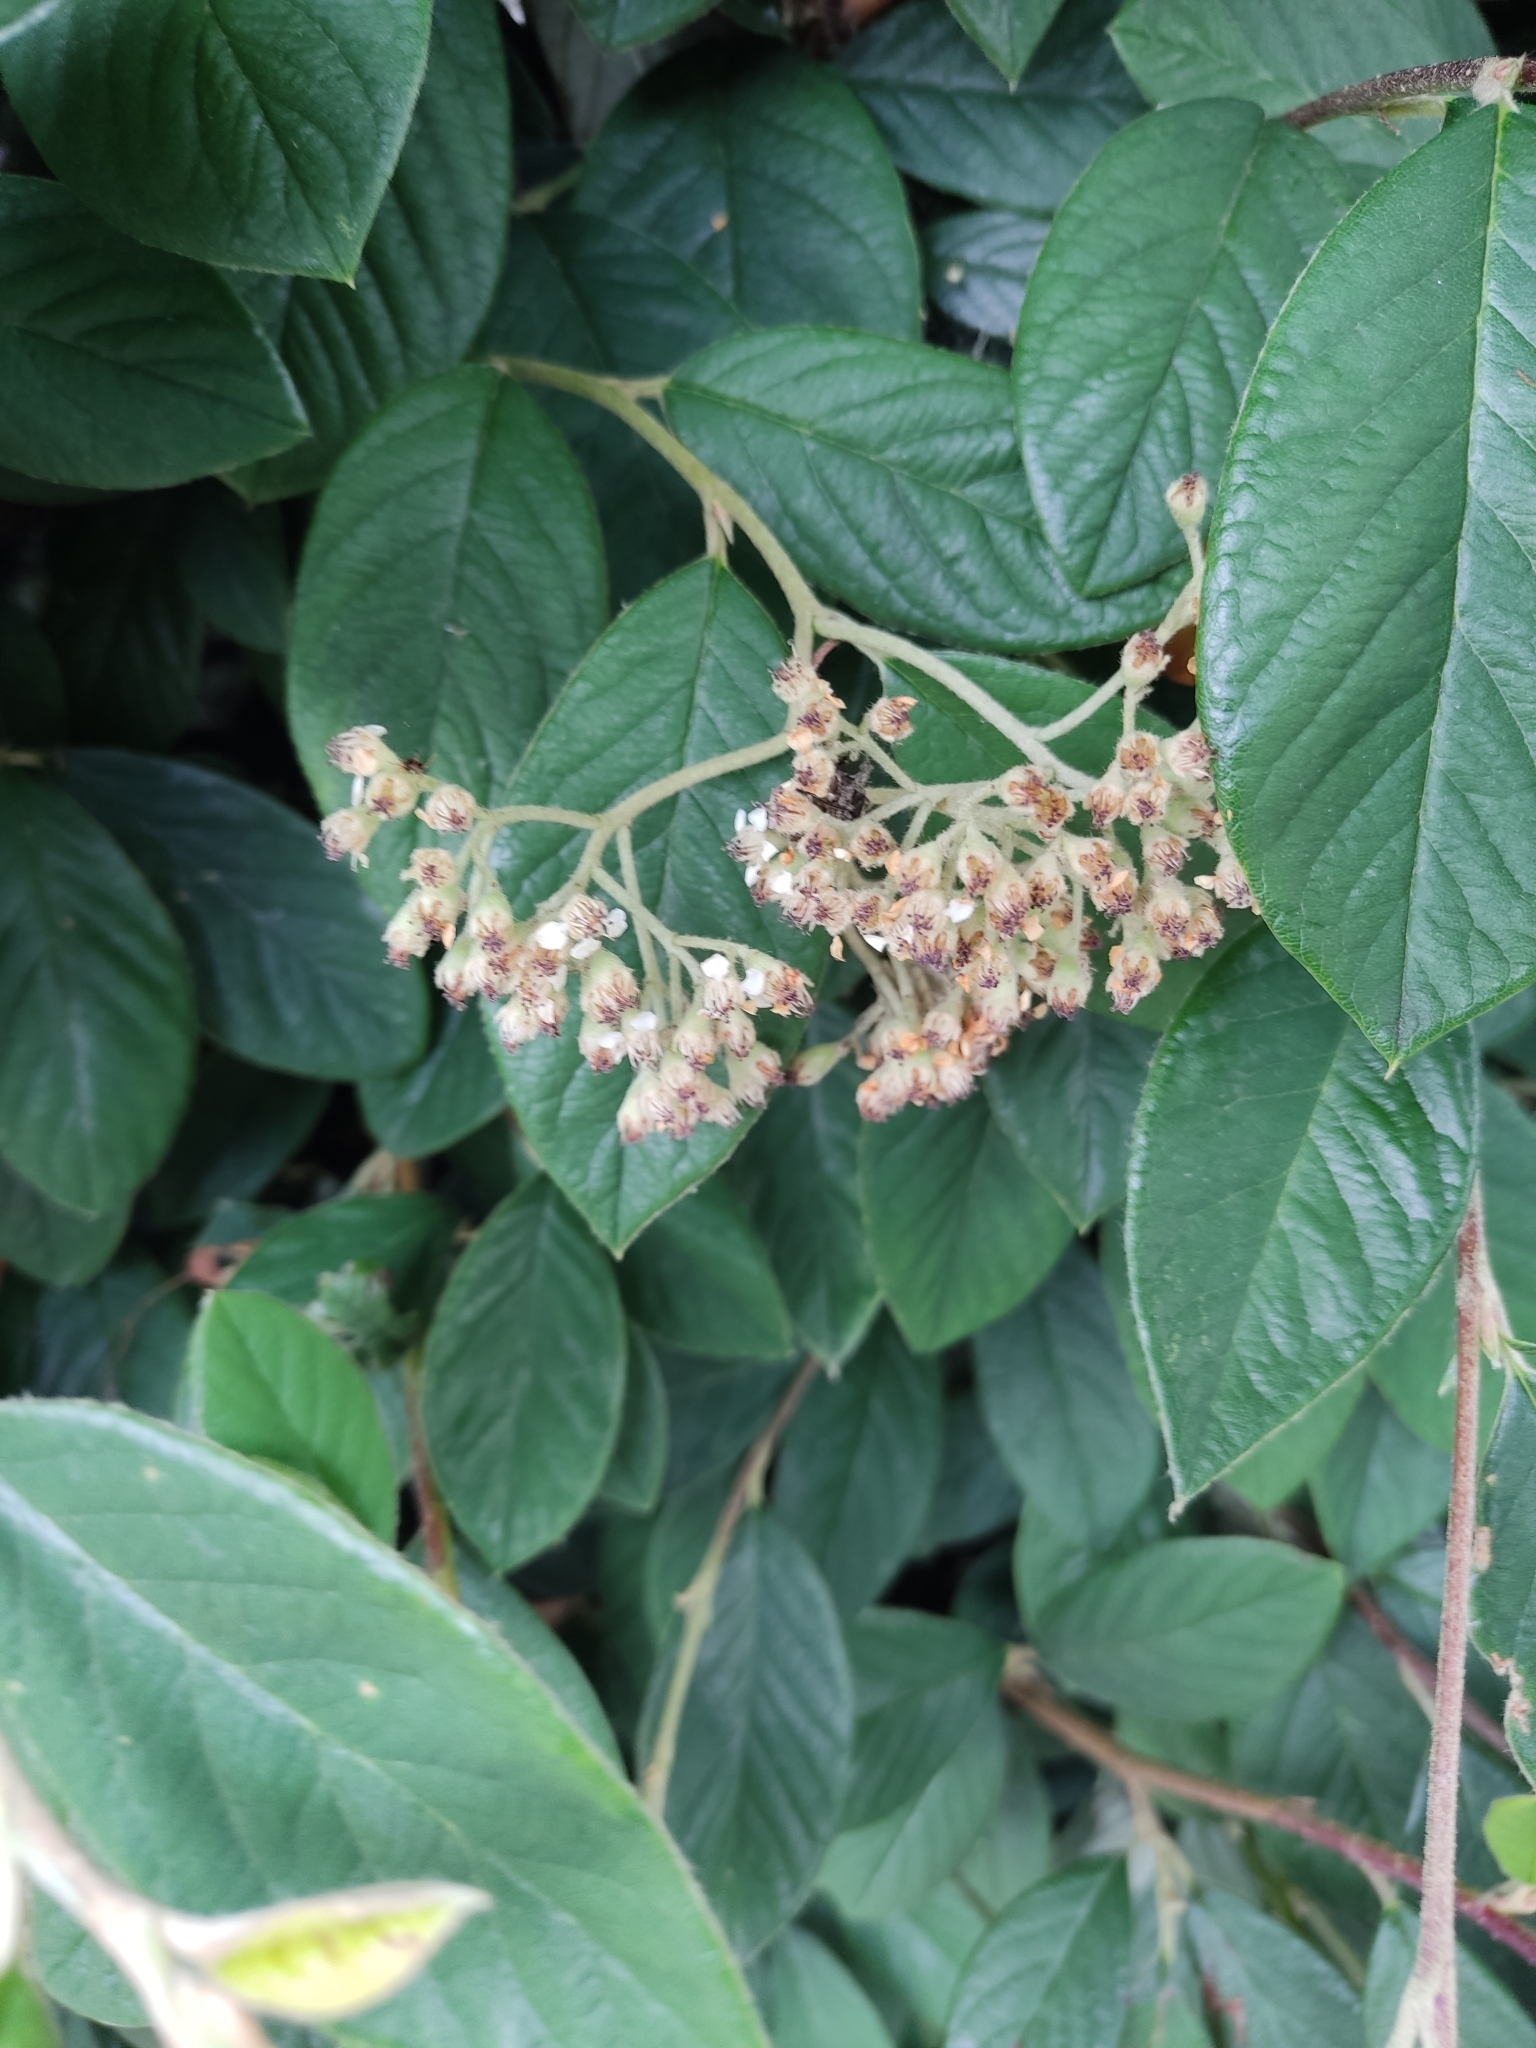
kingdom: Plantae
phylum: Tracheophyta
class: Magnoliopsida
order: Rosales
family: Rosaceae
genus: Cotoneaster
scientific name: Cotoneaster coriaceus
